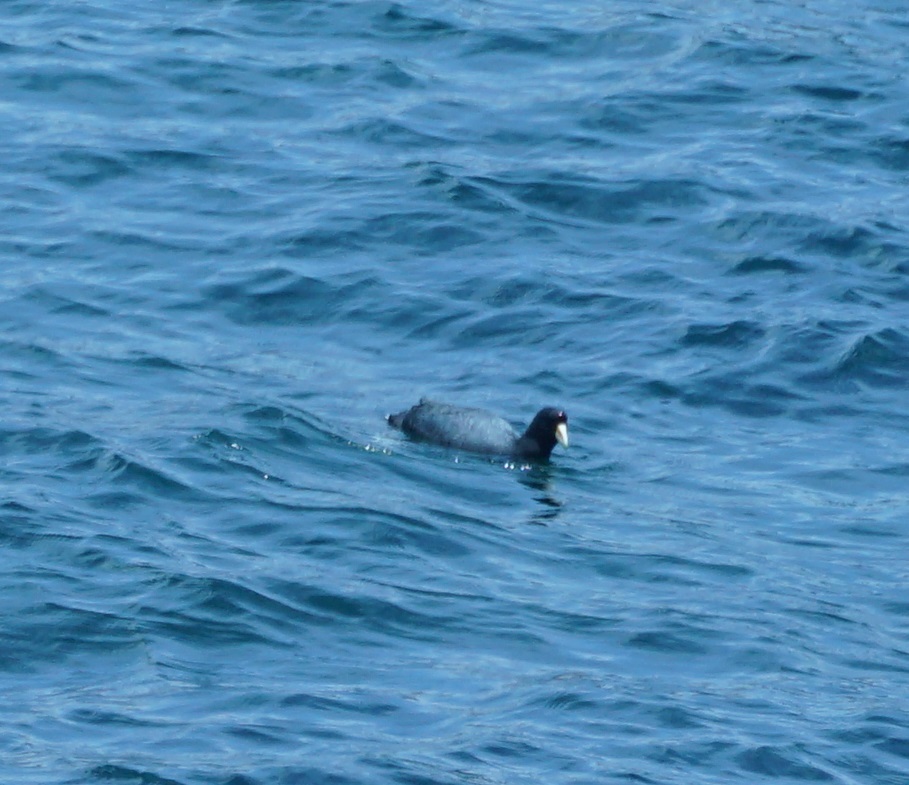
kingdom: Animalia
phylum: Chordata
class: Aves
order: Gruiformes
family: Rallidae
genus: Fulica
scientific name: Fulica ardesiaca
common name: Andean coot
